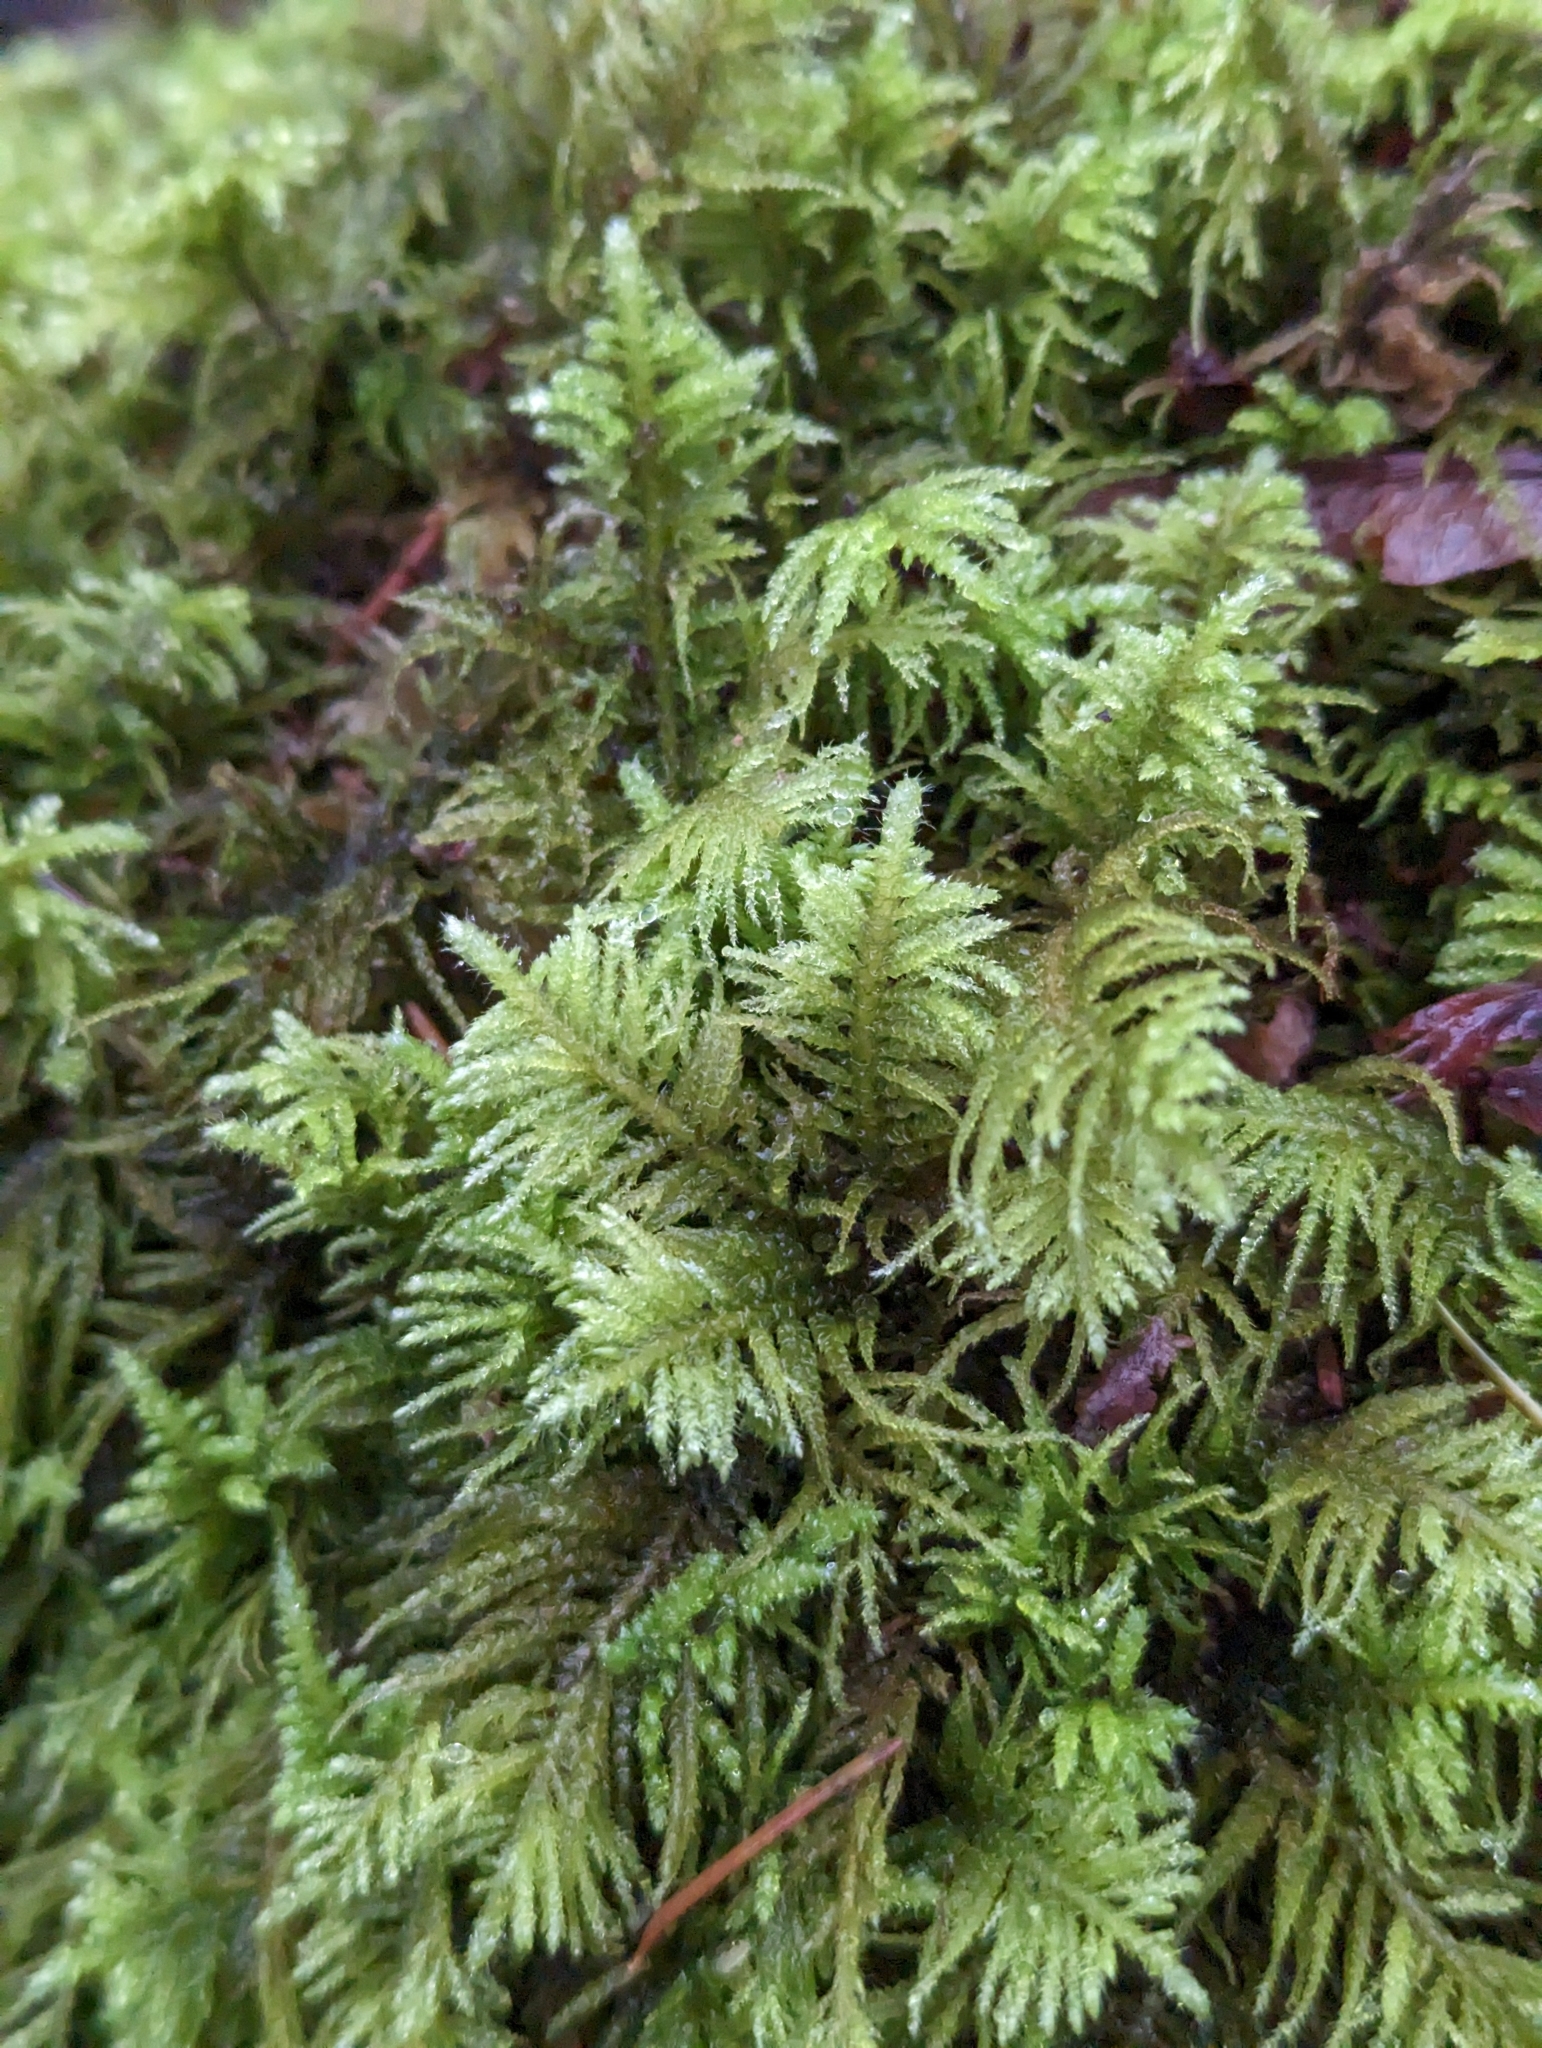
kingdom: Plantae
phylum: Bryophyta
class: Bryopsida
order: Hypnales
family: Brachytheciaceae
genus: Kindbergia
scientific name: Kindbergia oregana
